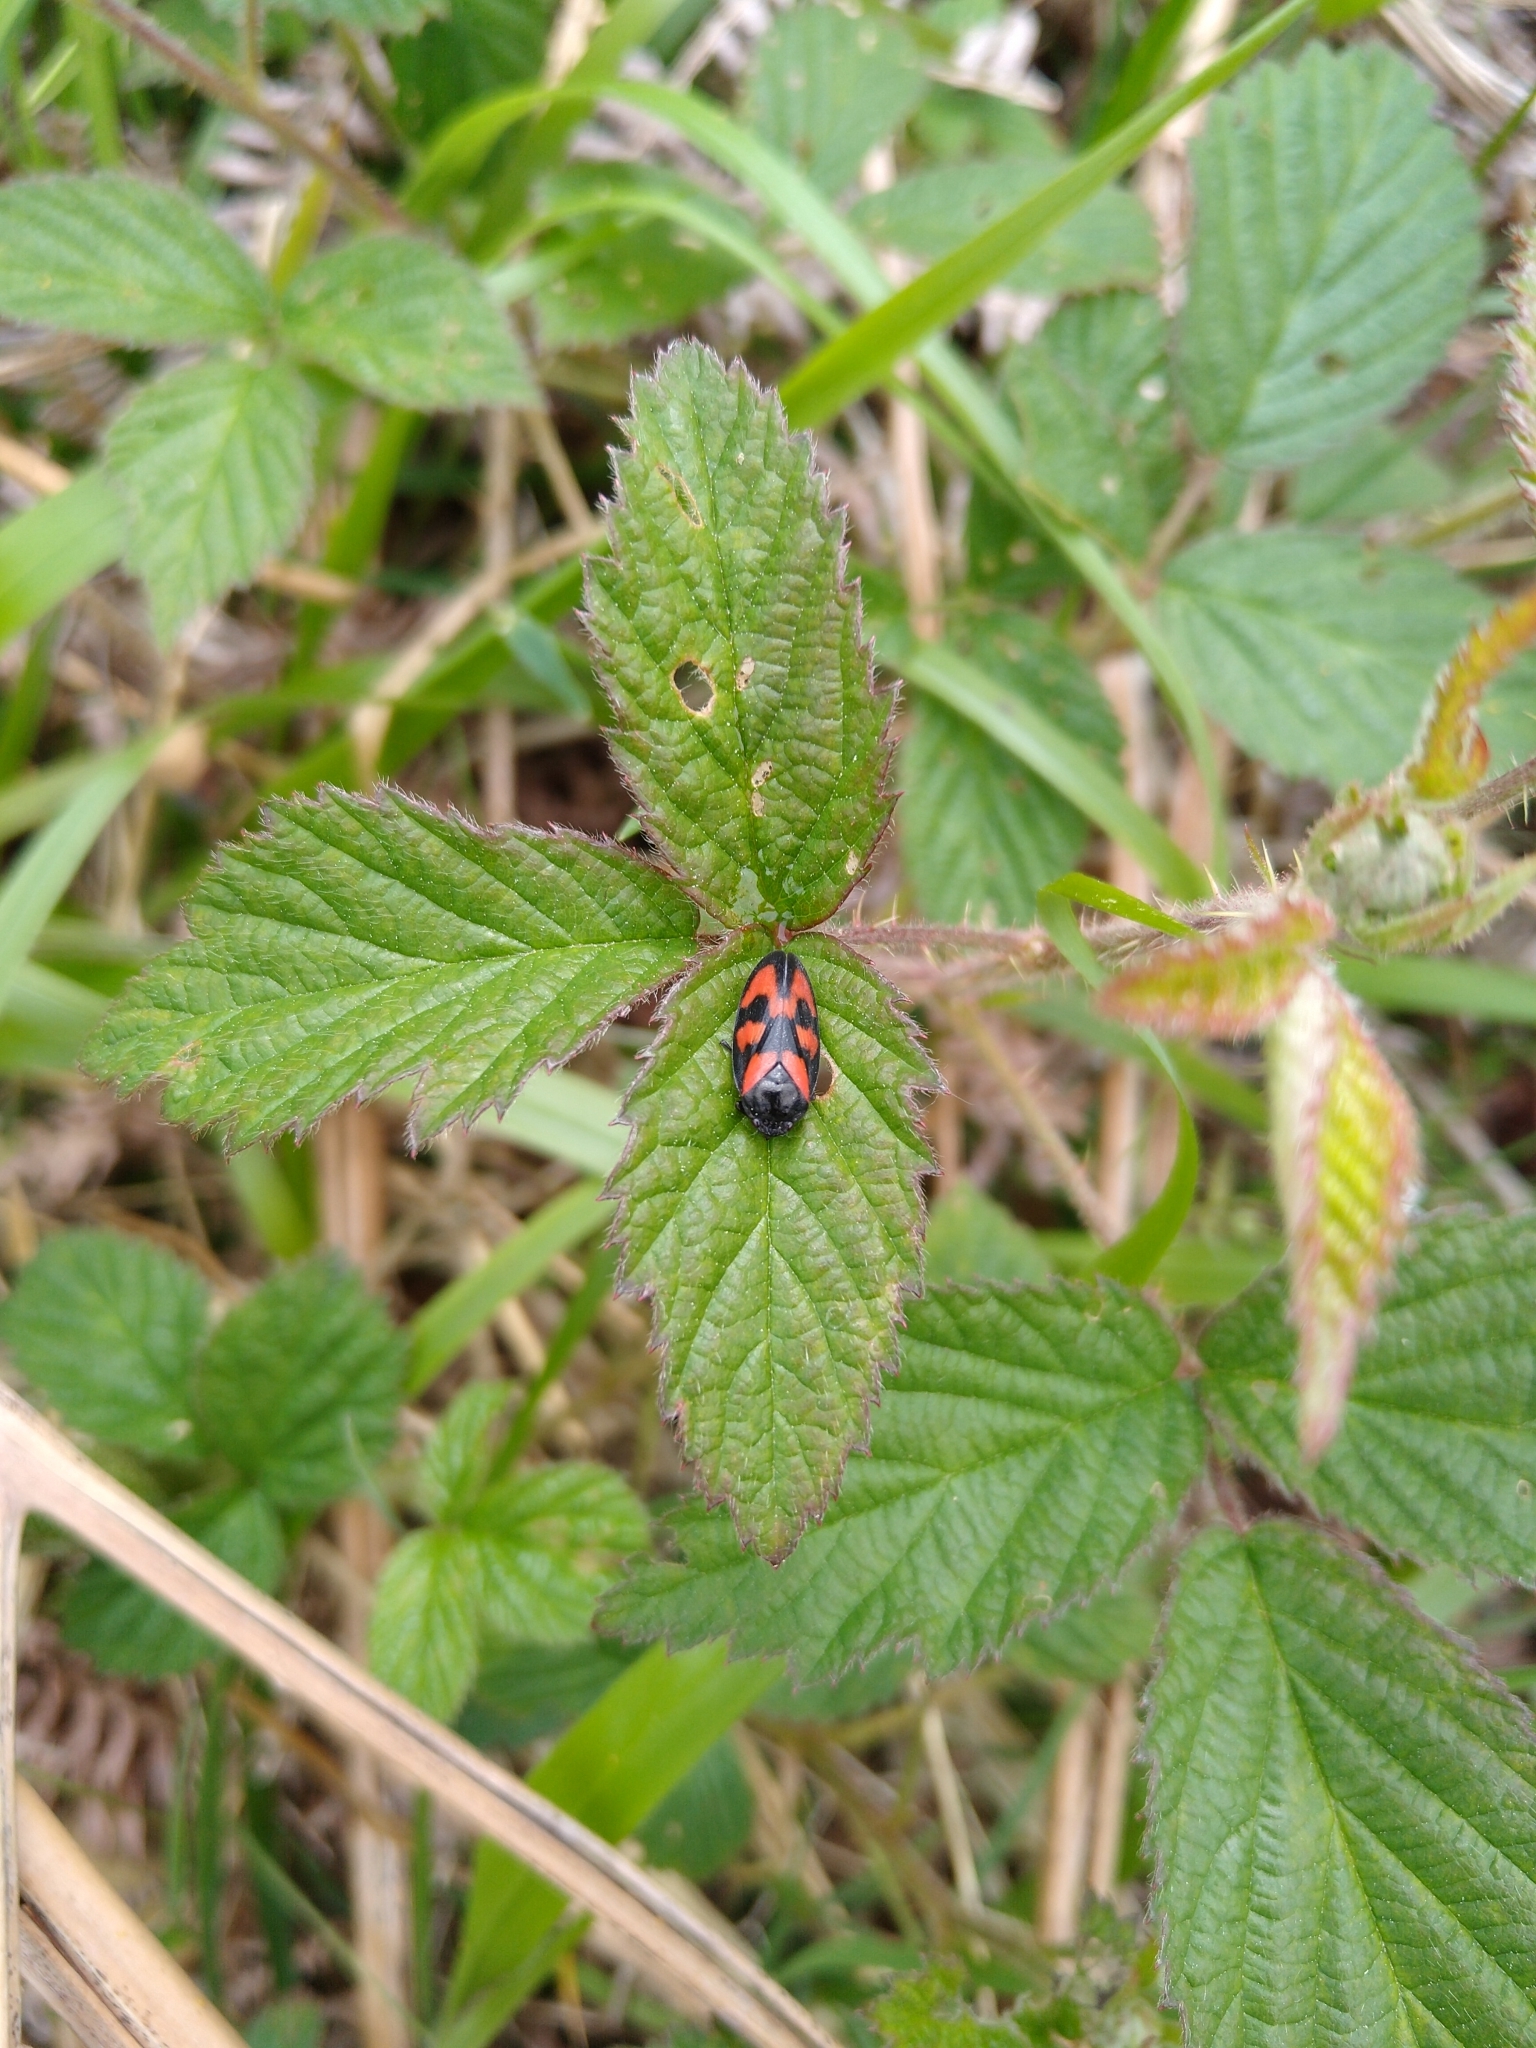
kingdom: Animalia
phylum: Arthropoda
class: Insecta
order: Hemiptera
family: Cercopidae
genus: Cercopis
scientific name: Cercopis vulnerata
